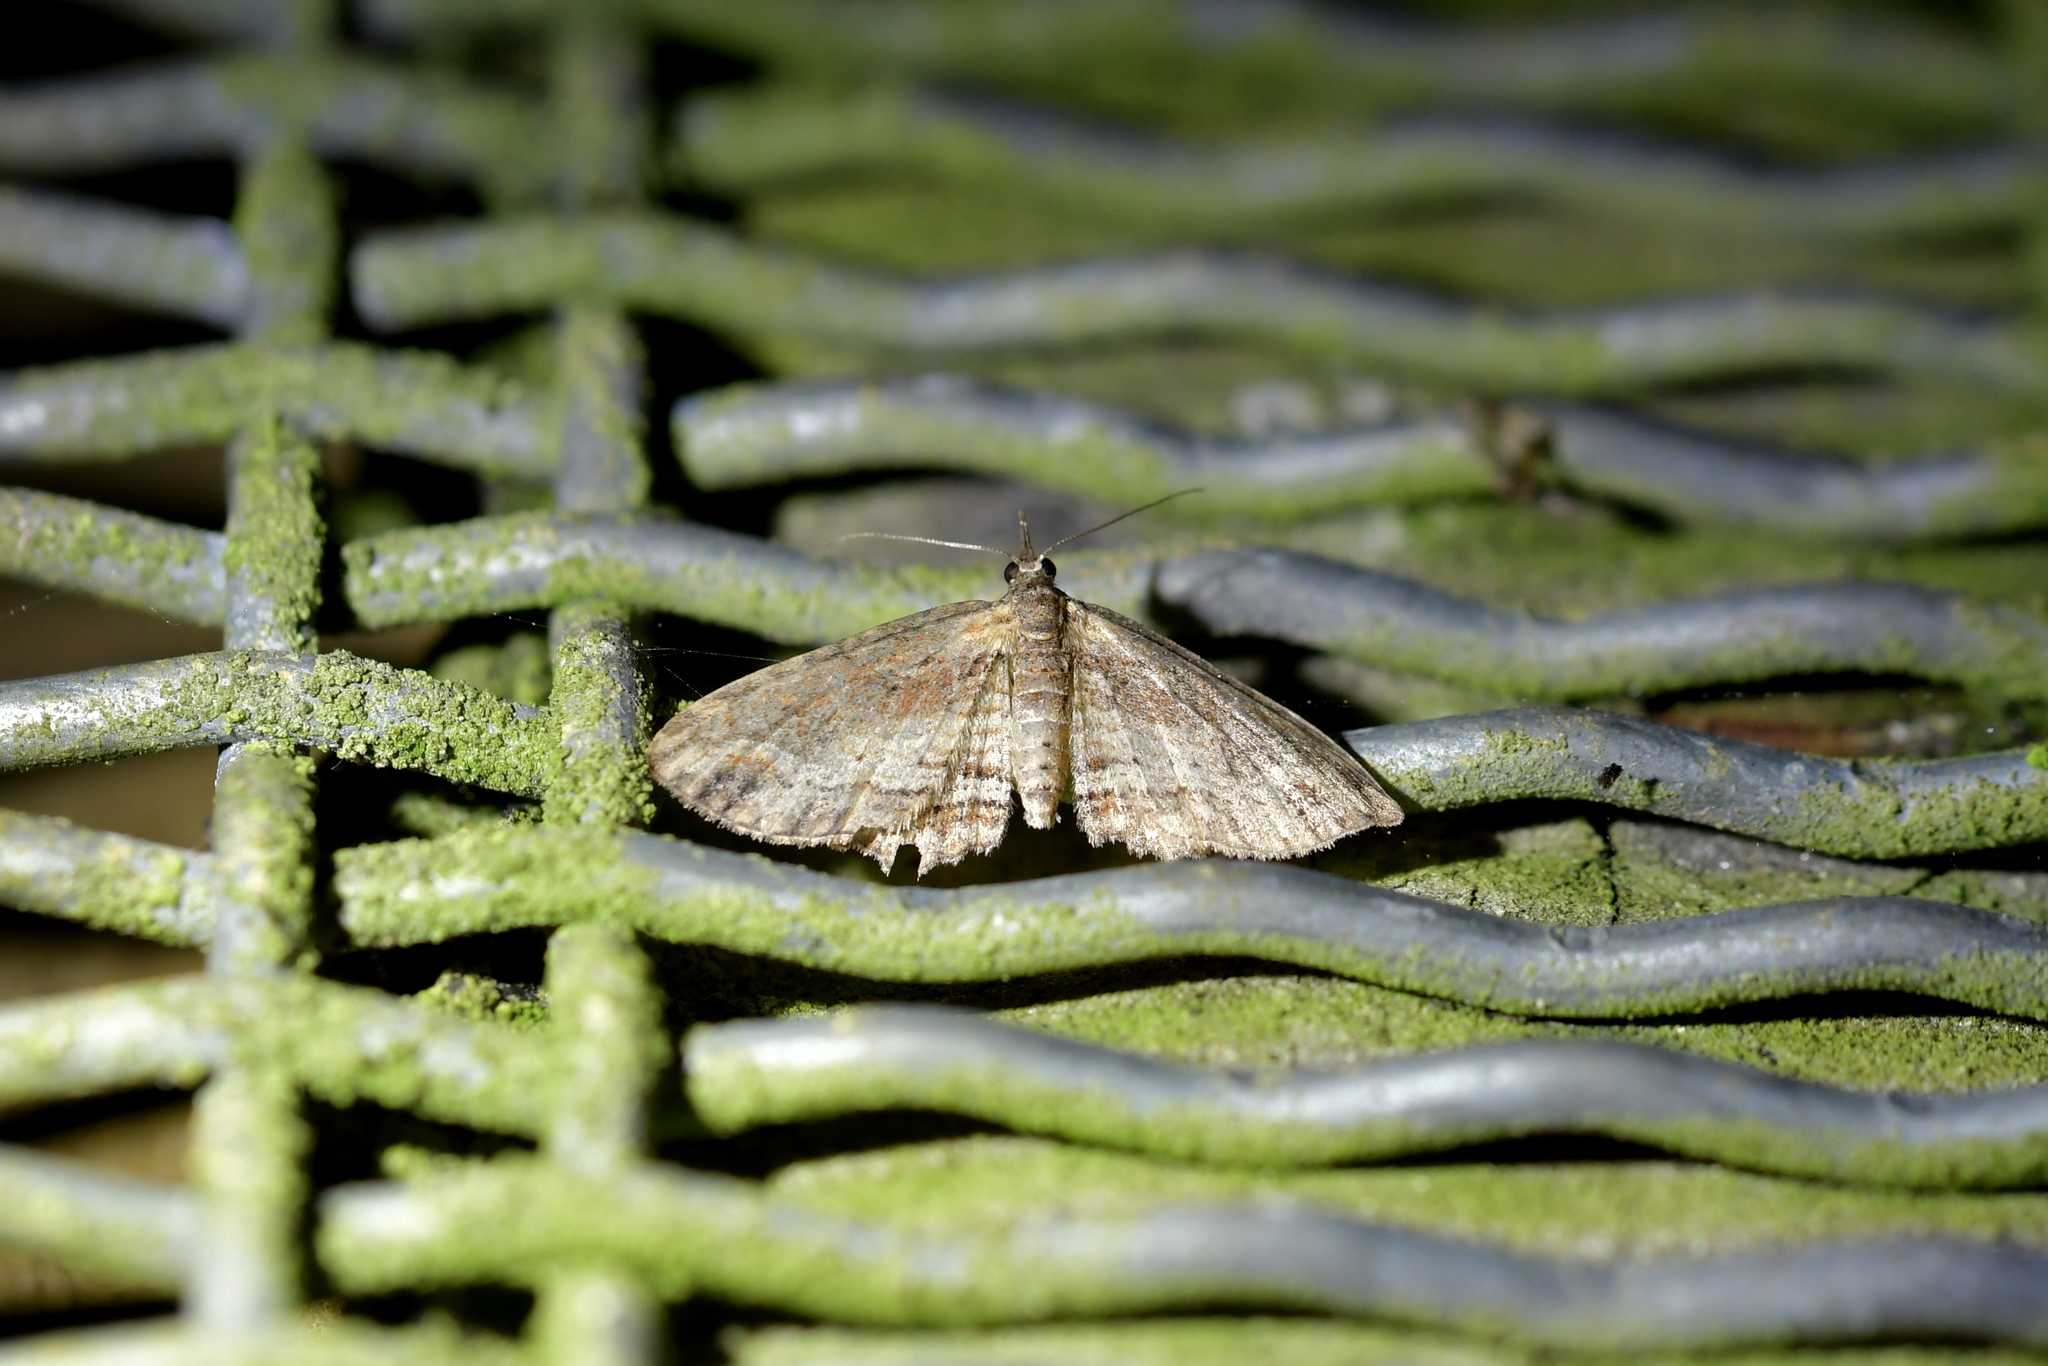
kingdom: Animalia
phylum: Arthropoda
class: Insecta
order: Lepidoptera
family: Geometridae
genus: Chloroclystis
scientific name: Chloroclystis filata
